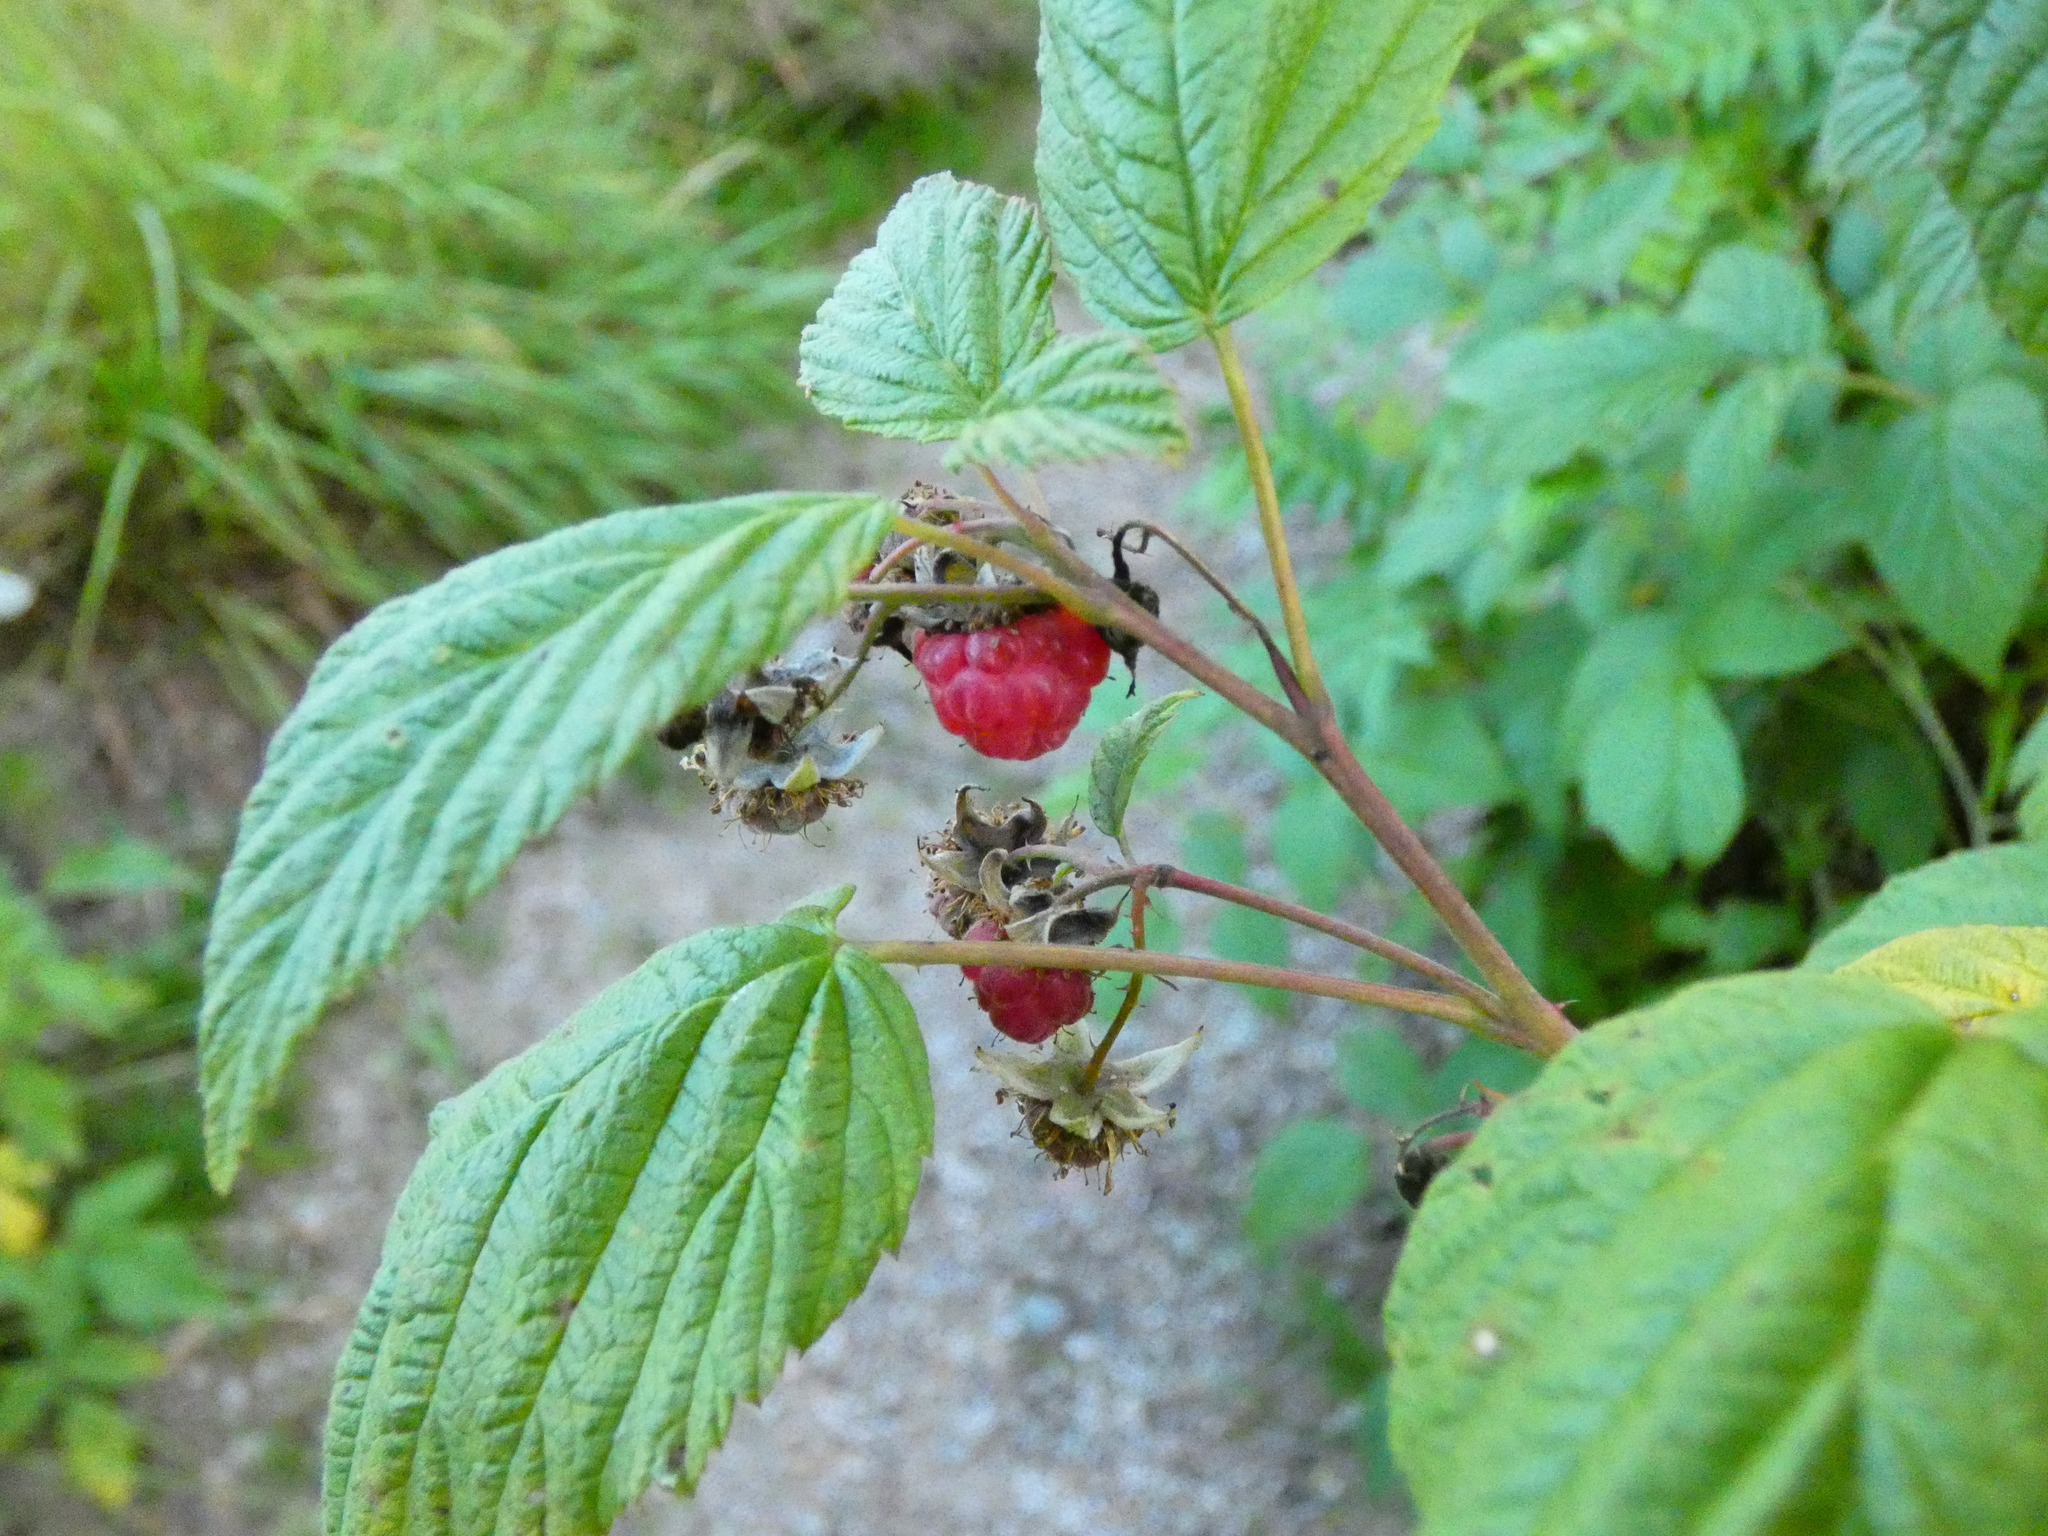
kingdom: Plantae
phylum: Tracheophyta
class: Magnoliopsida
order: Rosales
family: Rosaceae
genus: Rubus
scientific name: Rubus idaeus
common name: Raspberry
